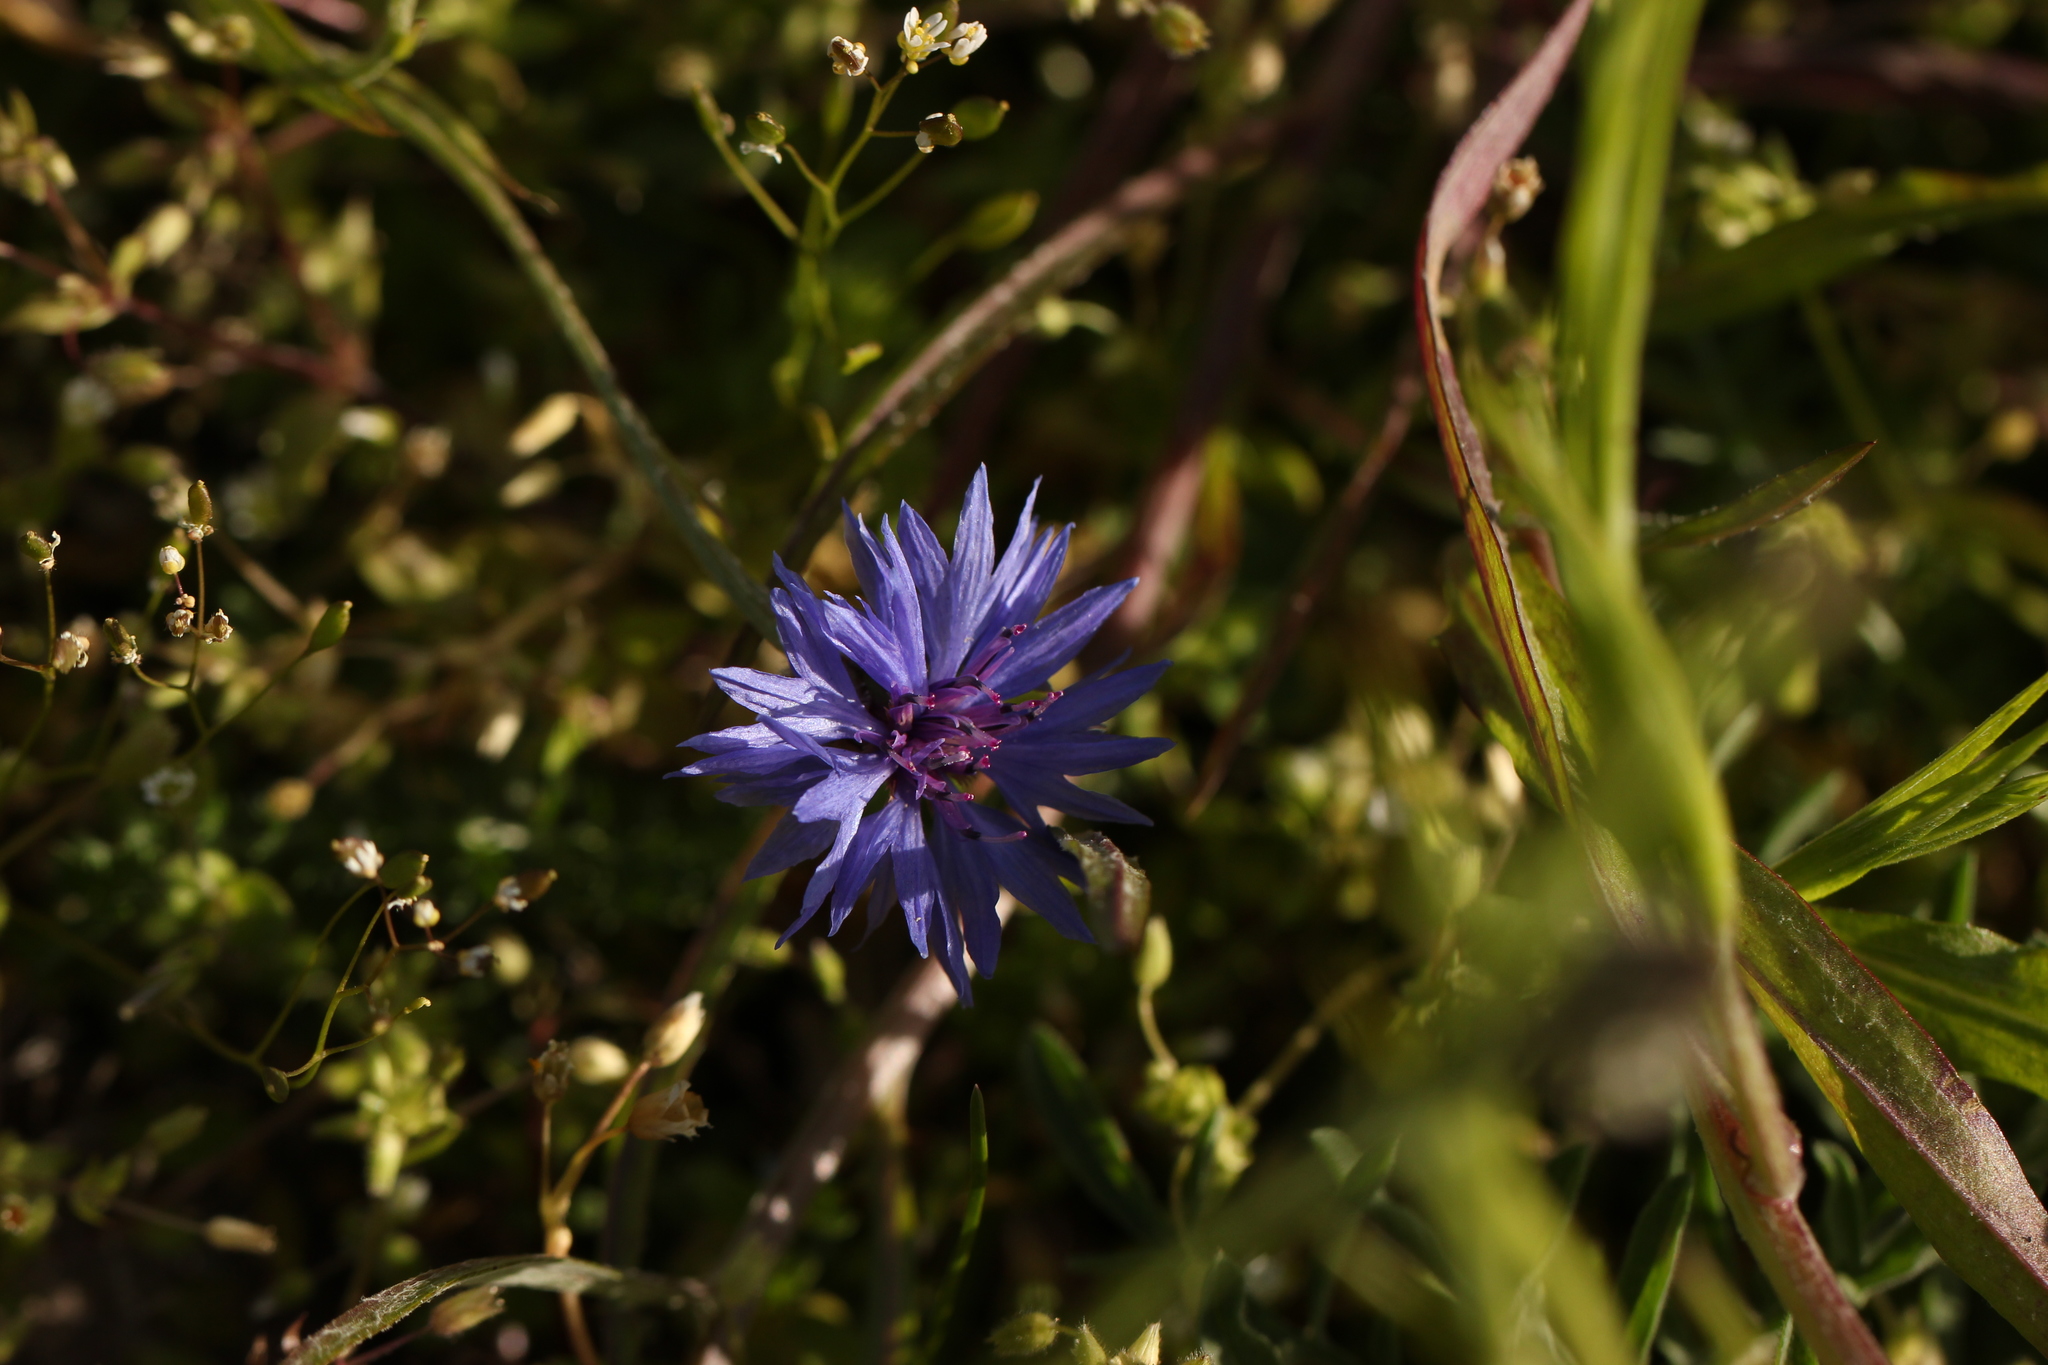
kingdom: Plantae
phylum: Tracheophyta
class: Magnoliopsida
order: Asterales
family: Asteraceae
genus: Centaurea
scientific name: Centaurea cyanus
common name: Cornflower
